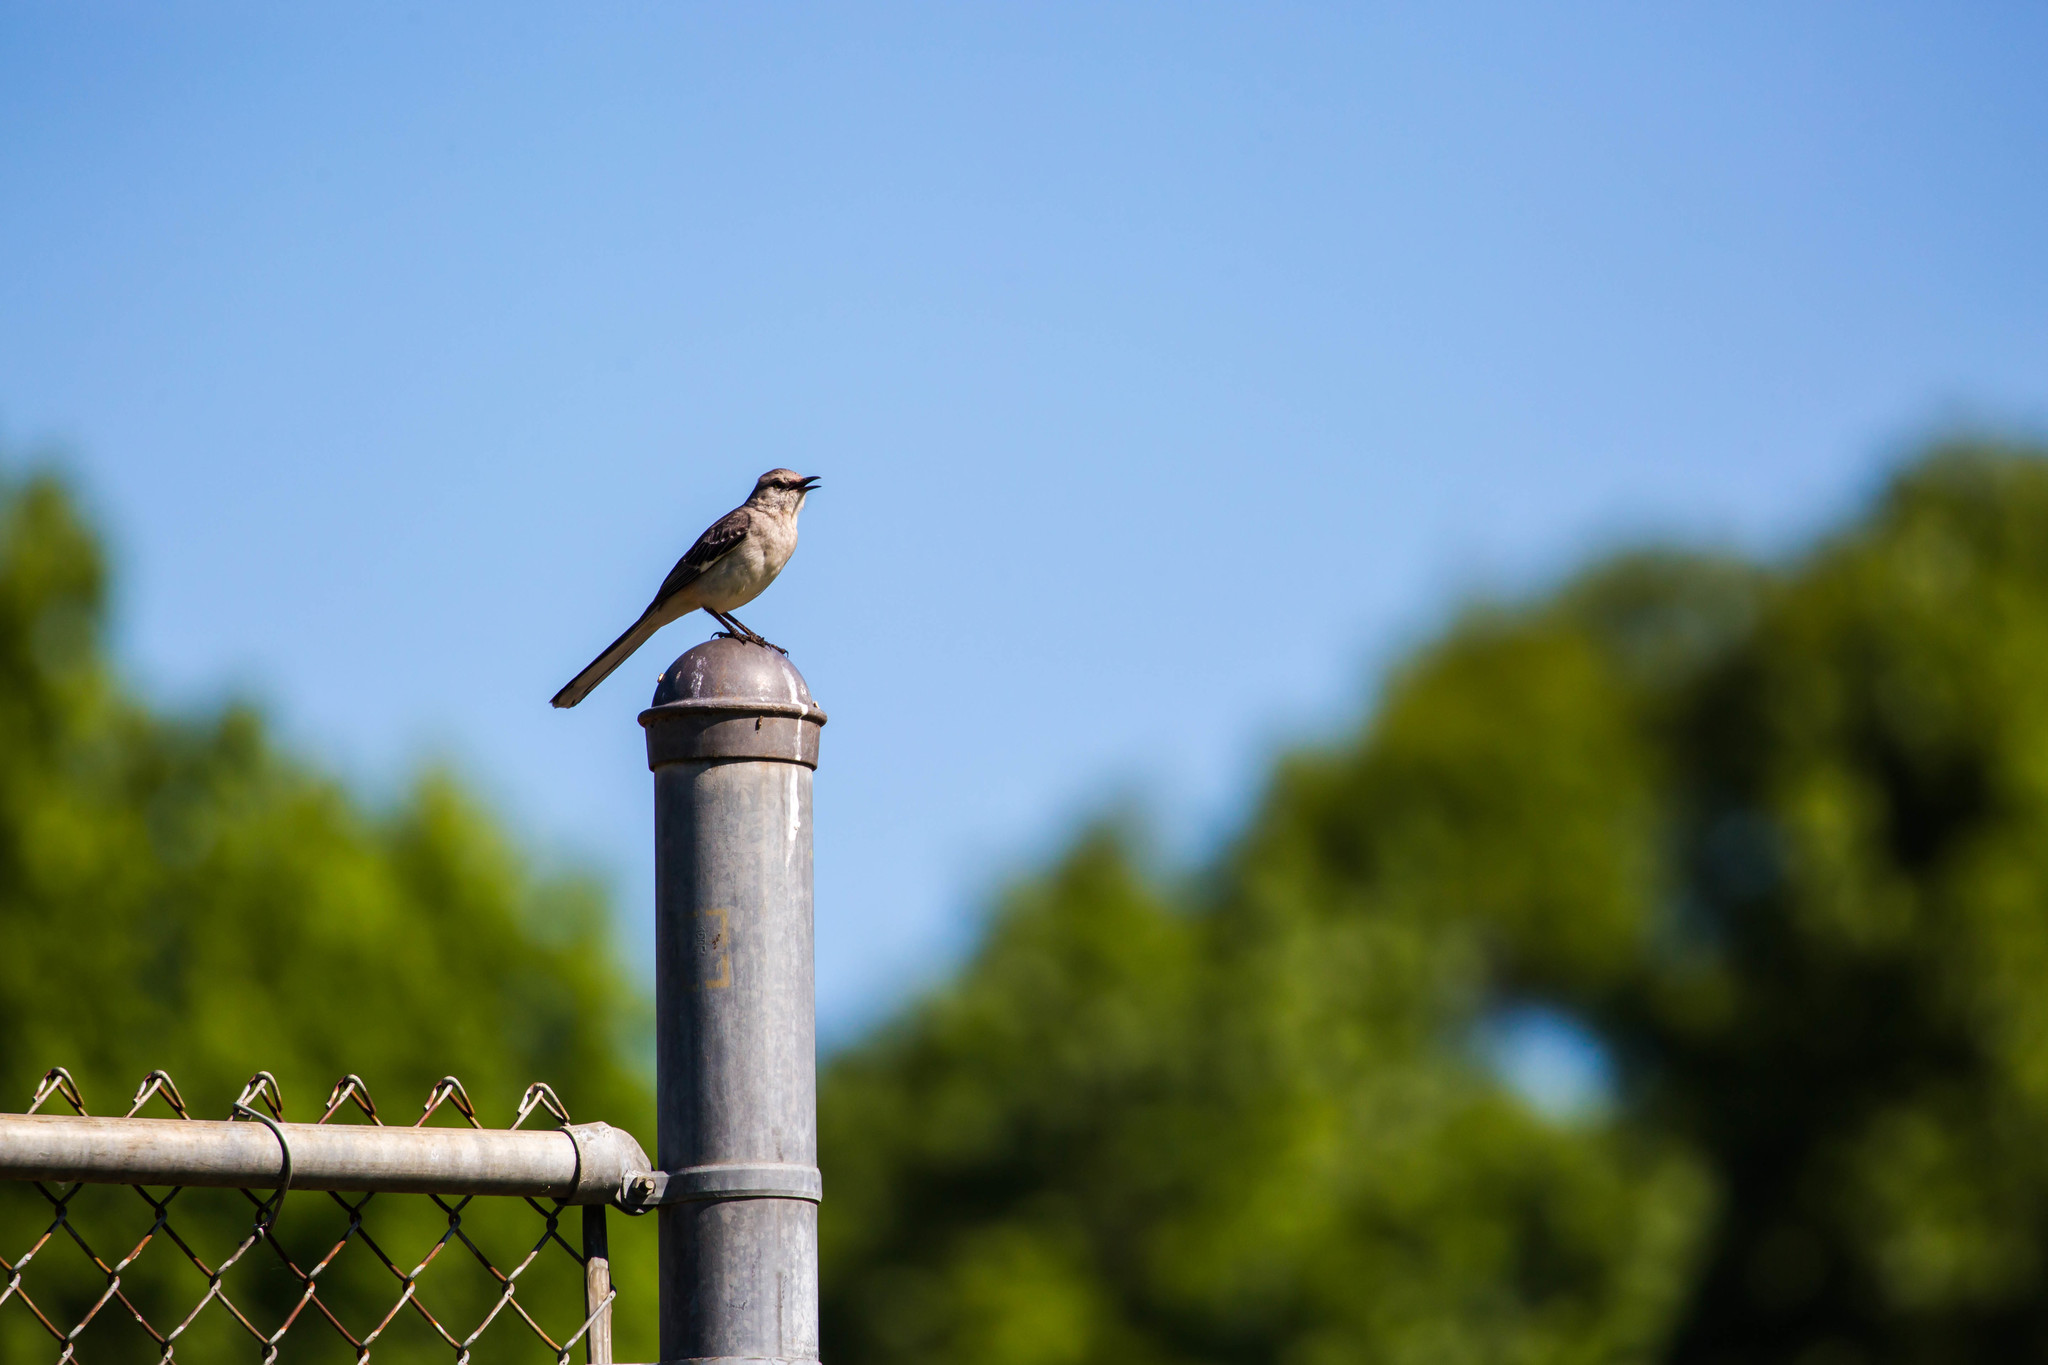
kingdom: Animalia
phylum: Chordata
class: Aves
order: Passeriformes
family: Mimidae
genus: Mimus
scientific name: Mimus polyglottos
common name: Northern mockingbird
